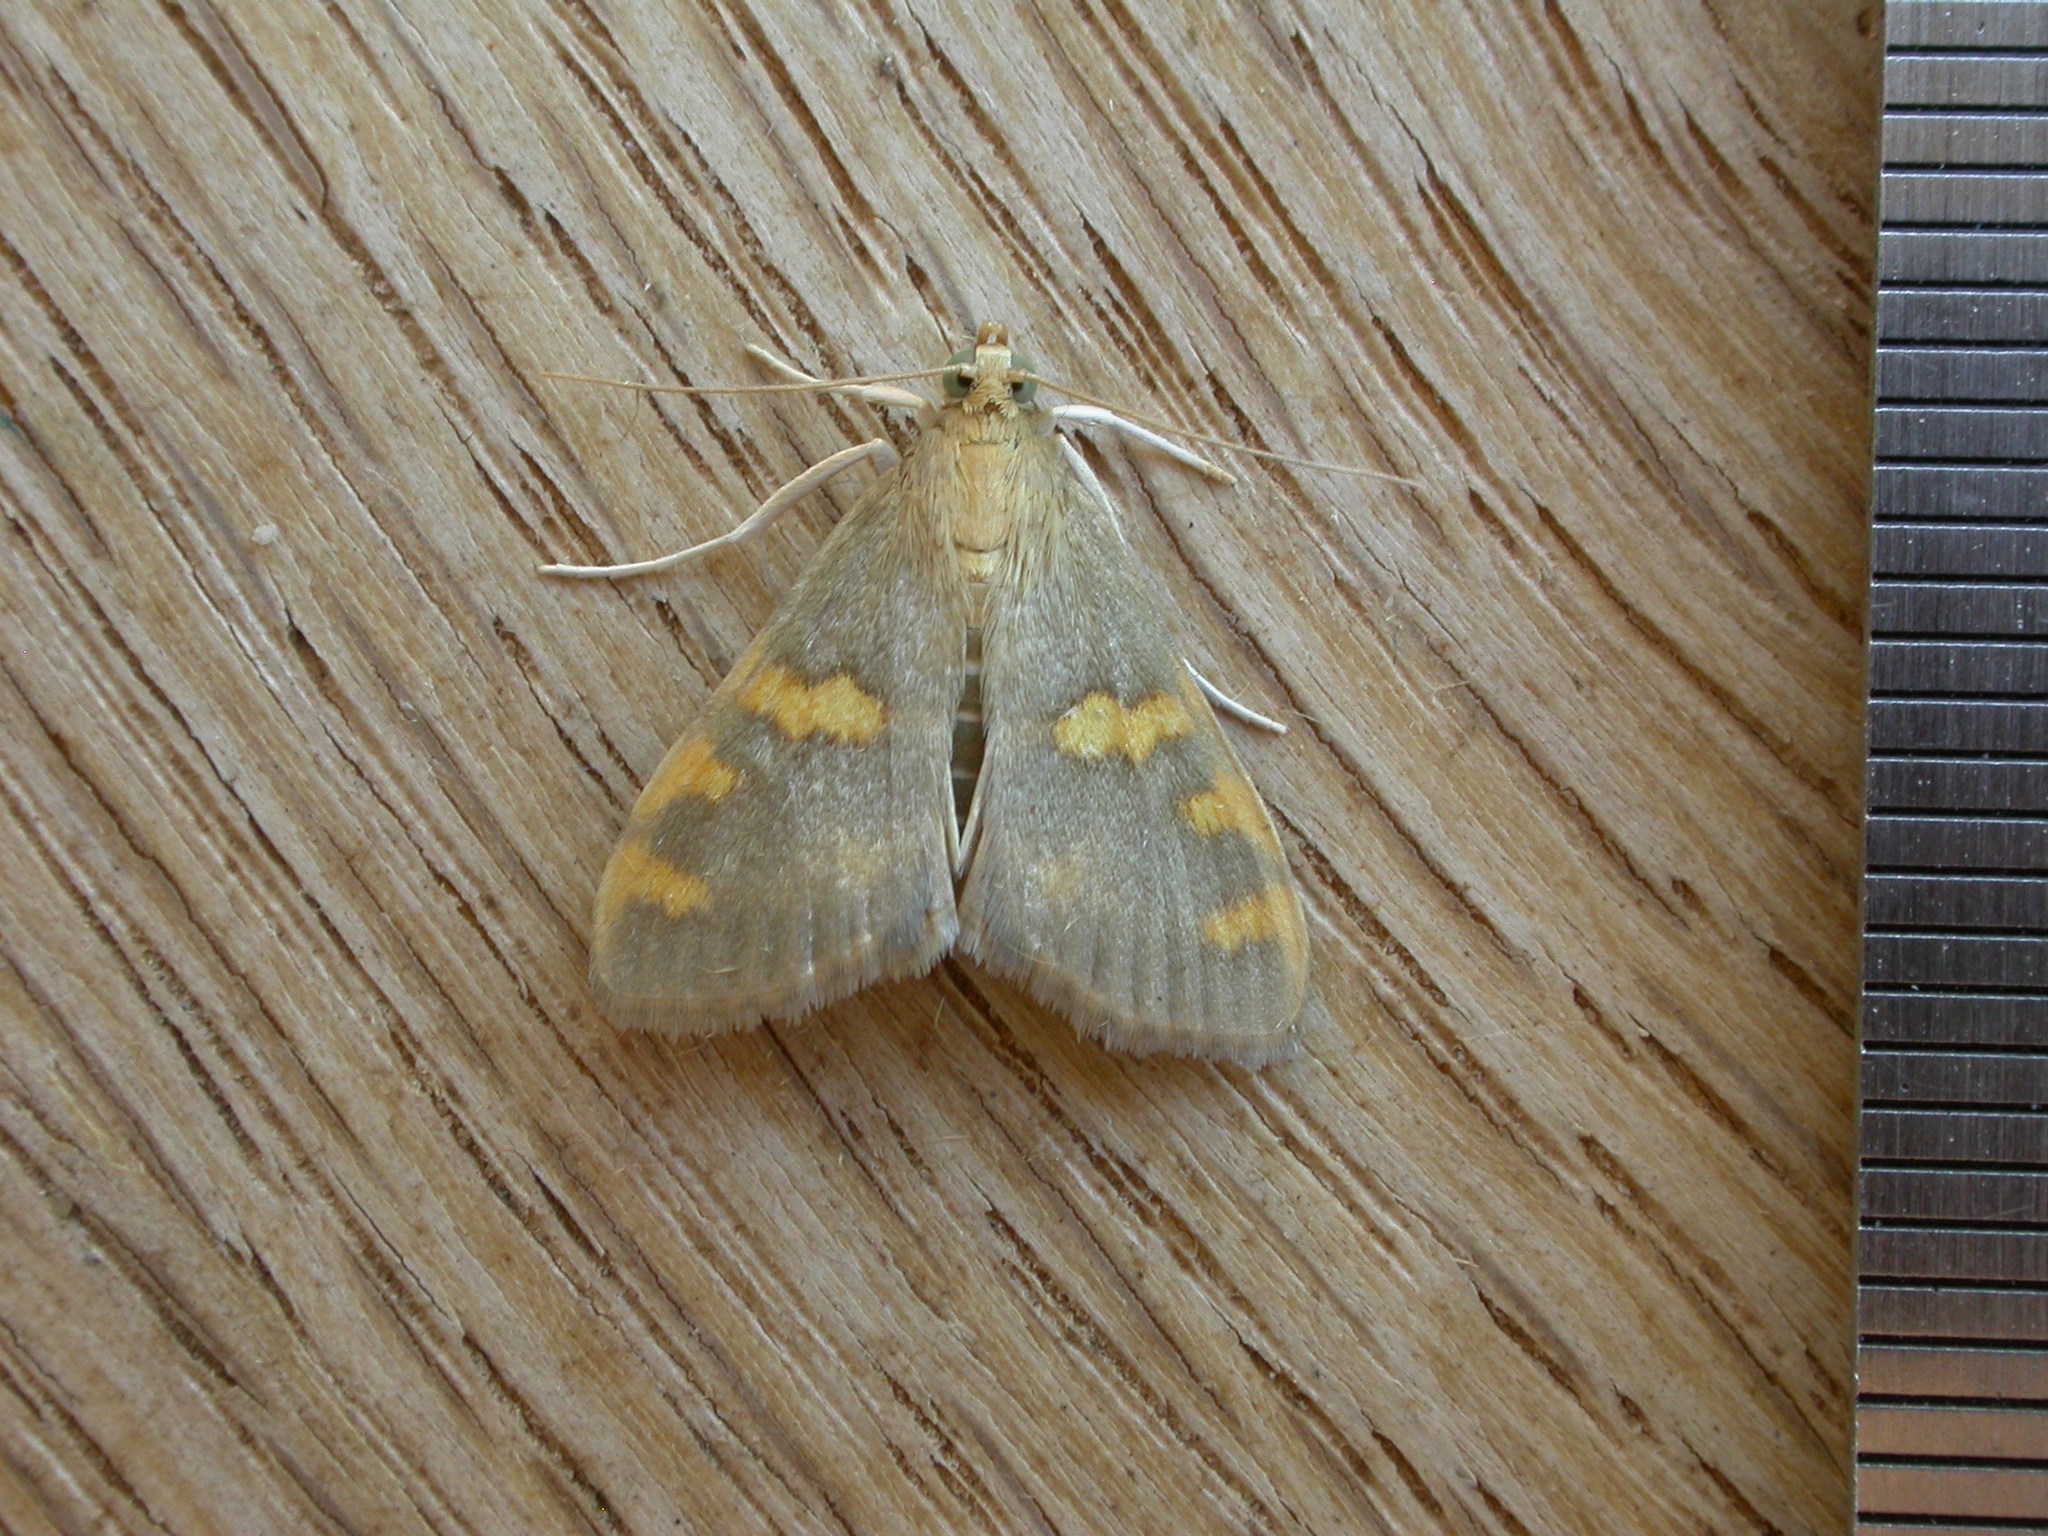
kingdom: Animalia
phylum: Arthropoda
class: Insecta
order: Lepidoptera
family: Crambidae
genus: Rehimena
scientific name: Rehimena surusalis
